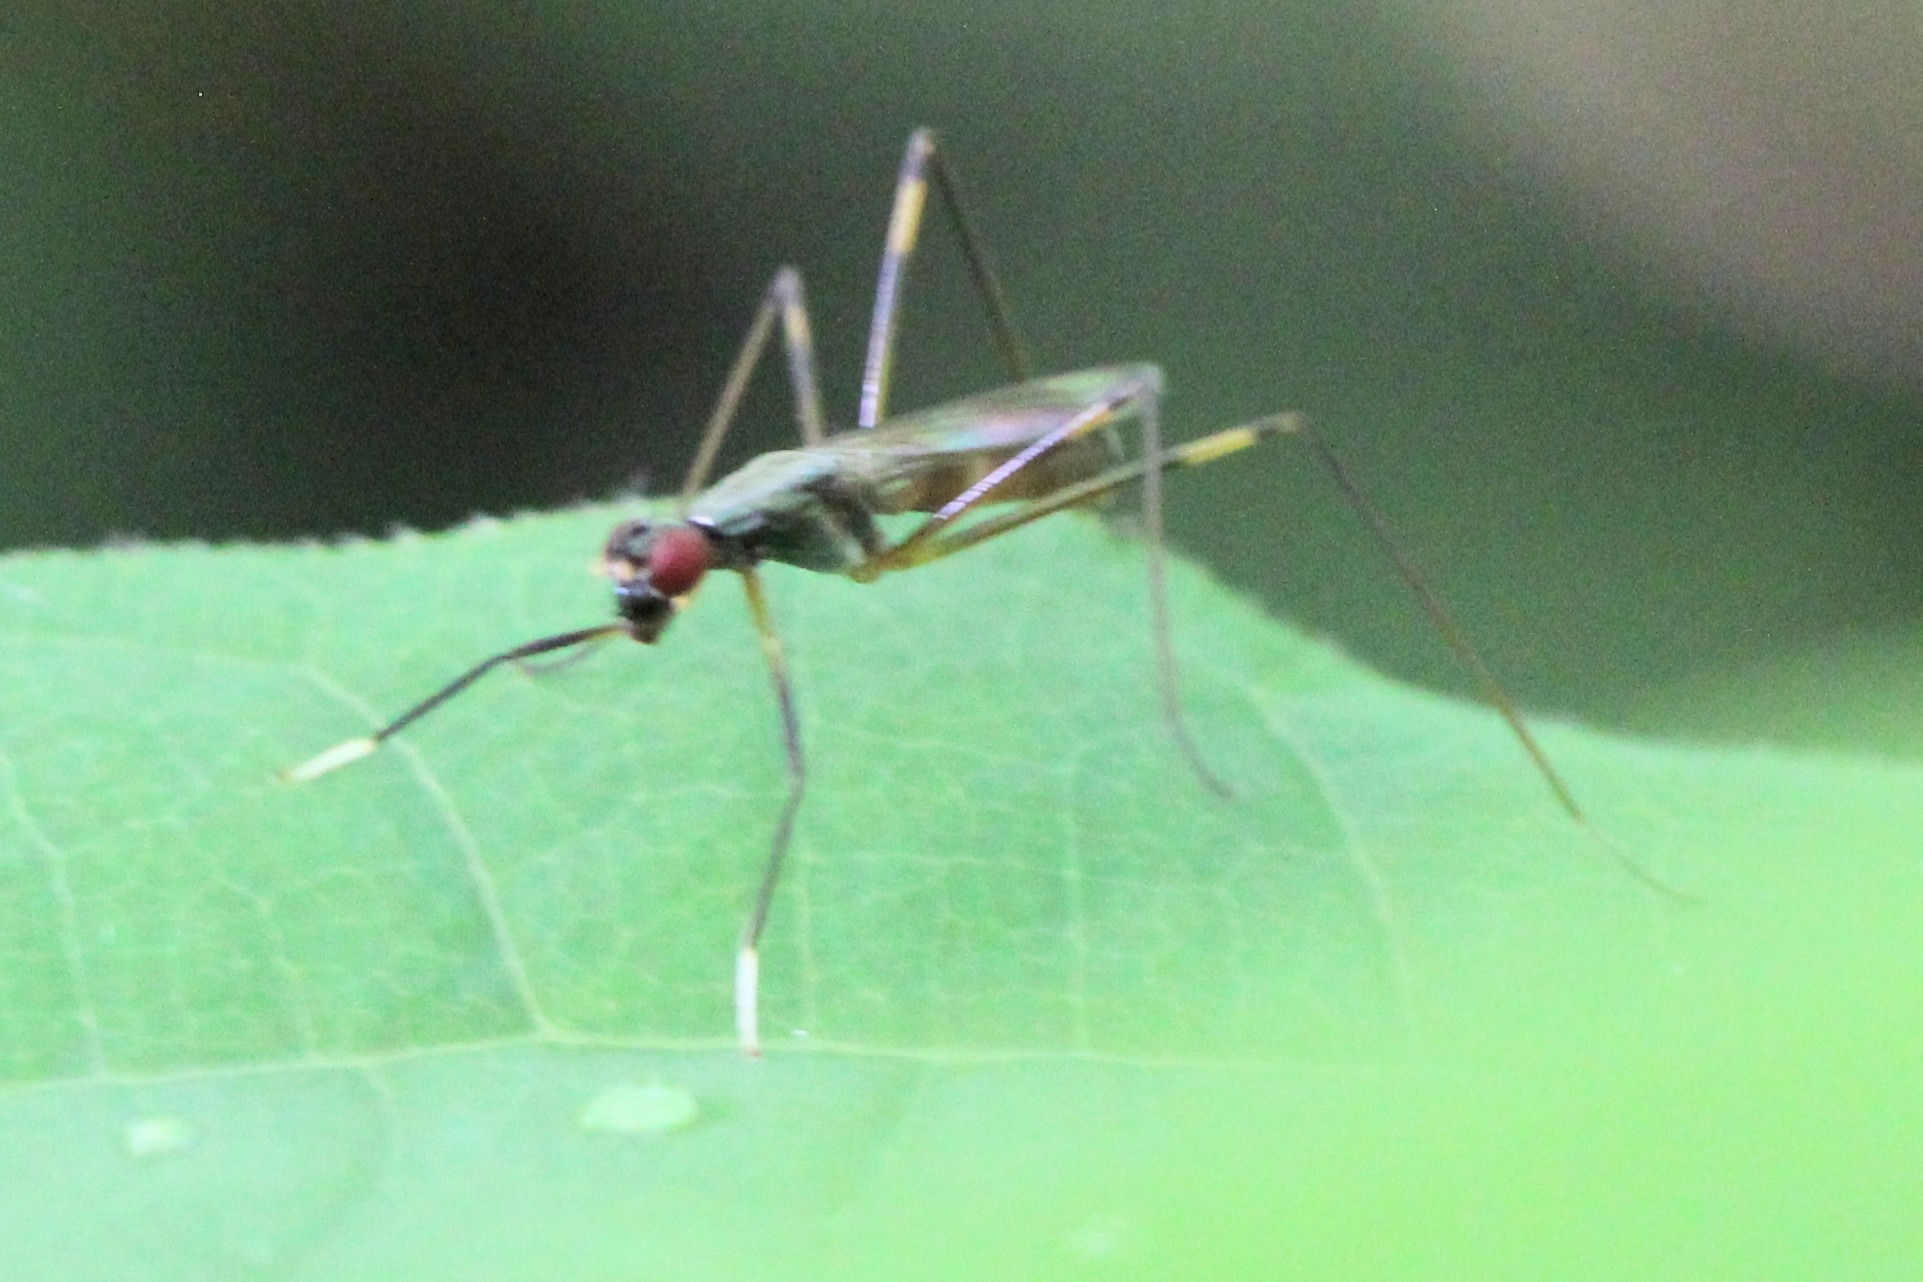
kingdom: Animalia
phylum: Arthropoda
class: Insecta
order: Diptera
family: Micropezidae
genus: Rainieria
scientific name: Rainieria antennaepes
